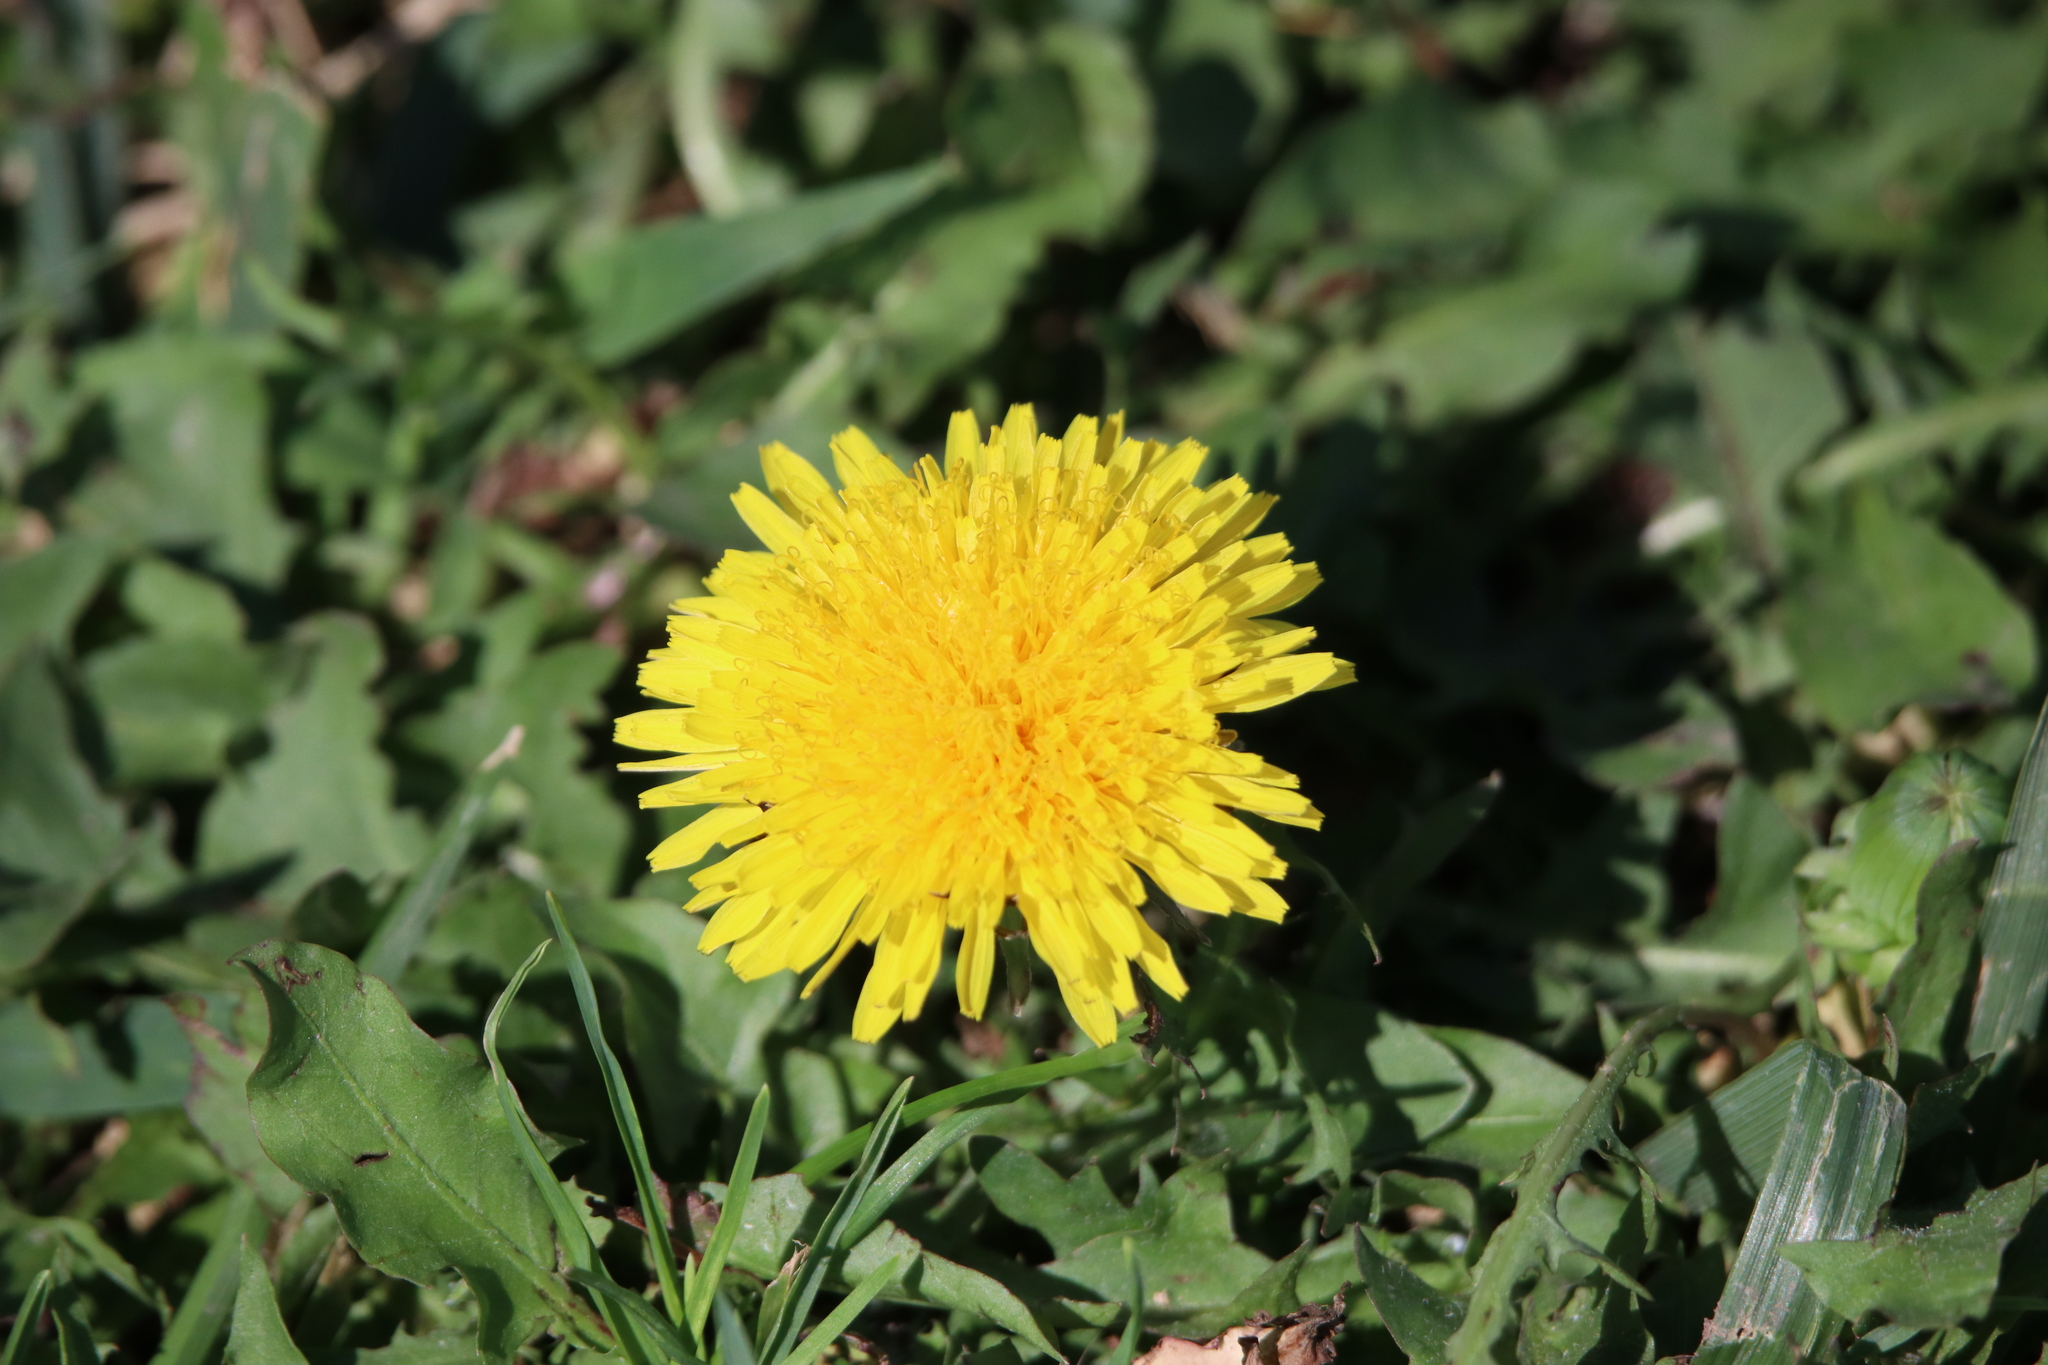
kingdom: Plantae
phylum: Tracheophyta
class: Magnoliopsida
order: Asterales
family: Asteraceae
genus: Taraxacum
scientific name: Taraxacum officinale
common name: Common dandelion
